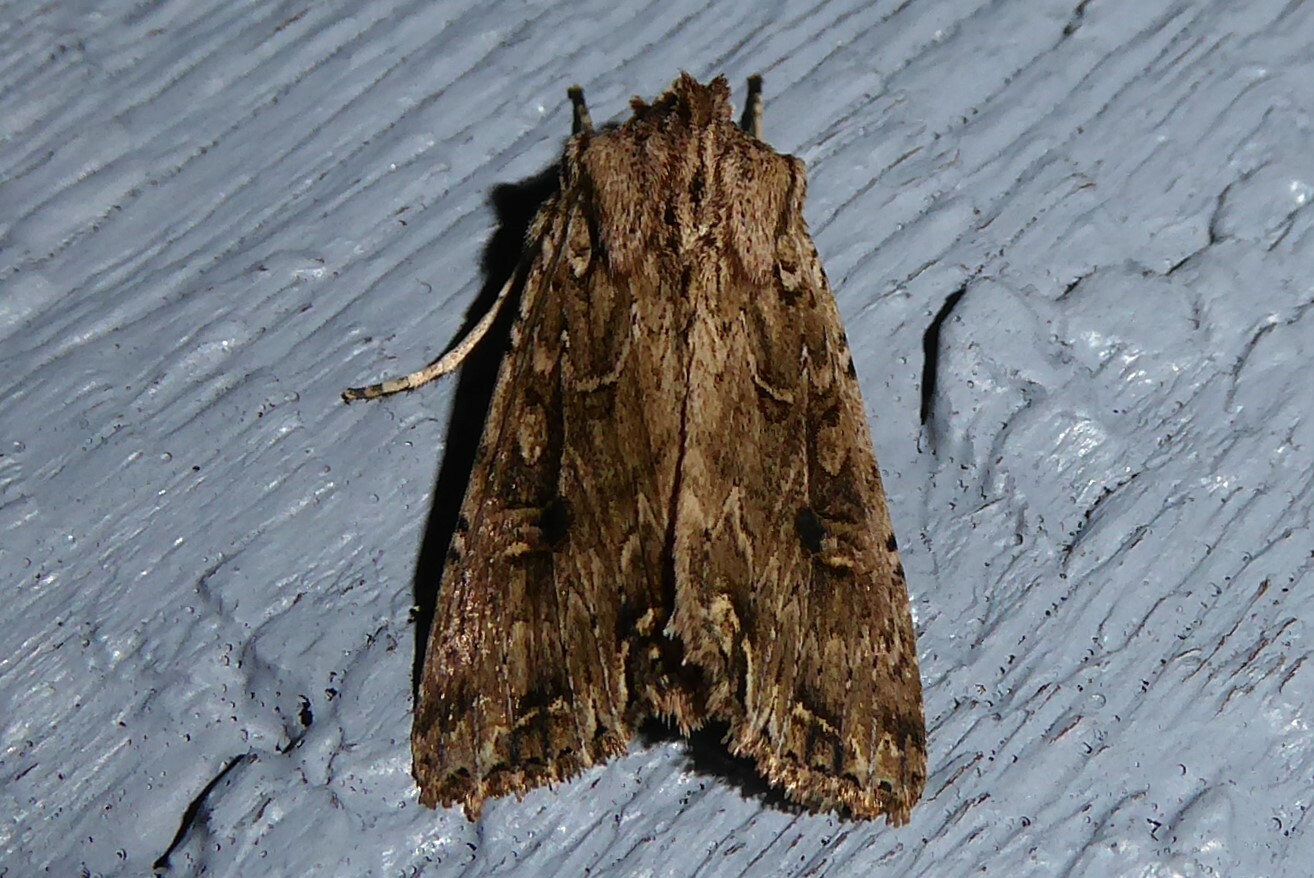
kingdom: Animalia
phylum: Arthropoda
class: Insecta
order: Lepidoptera
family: Noctuidae
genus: Ichneutica
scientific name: Ichneutica lignana
